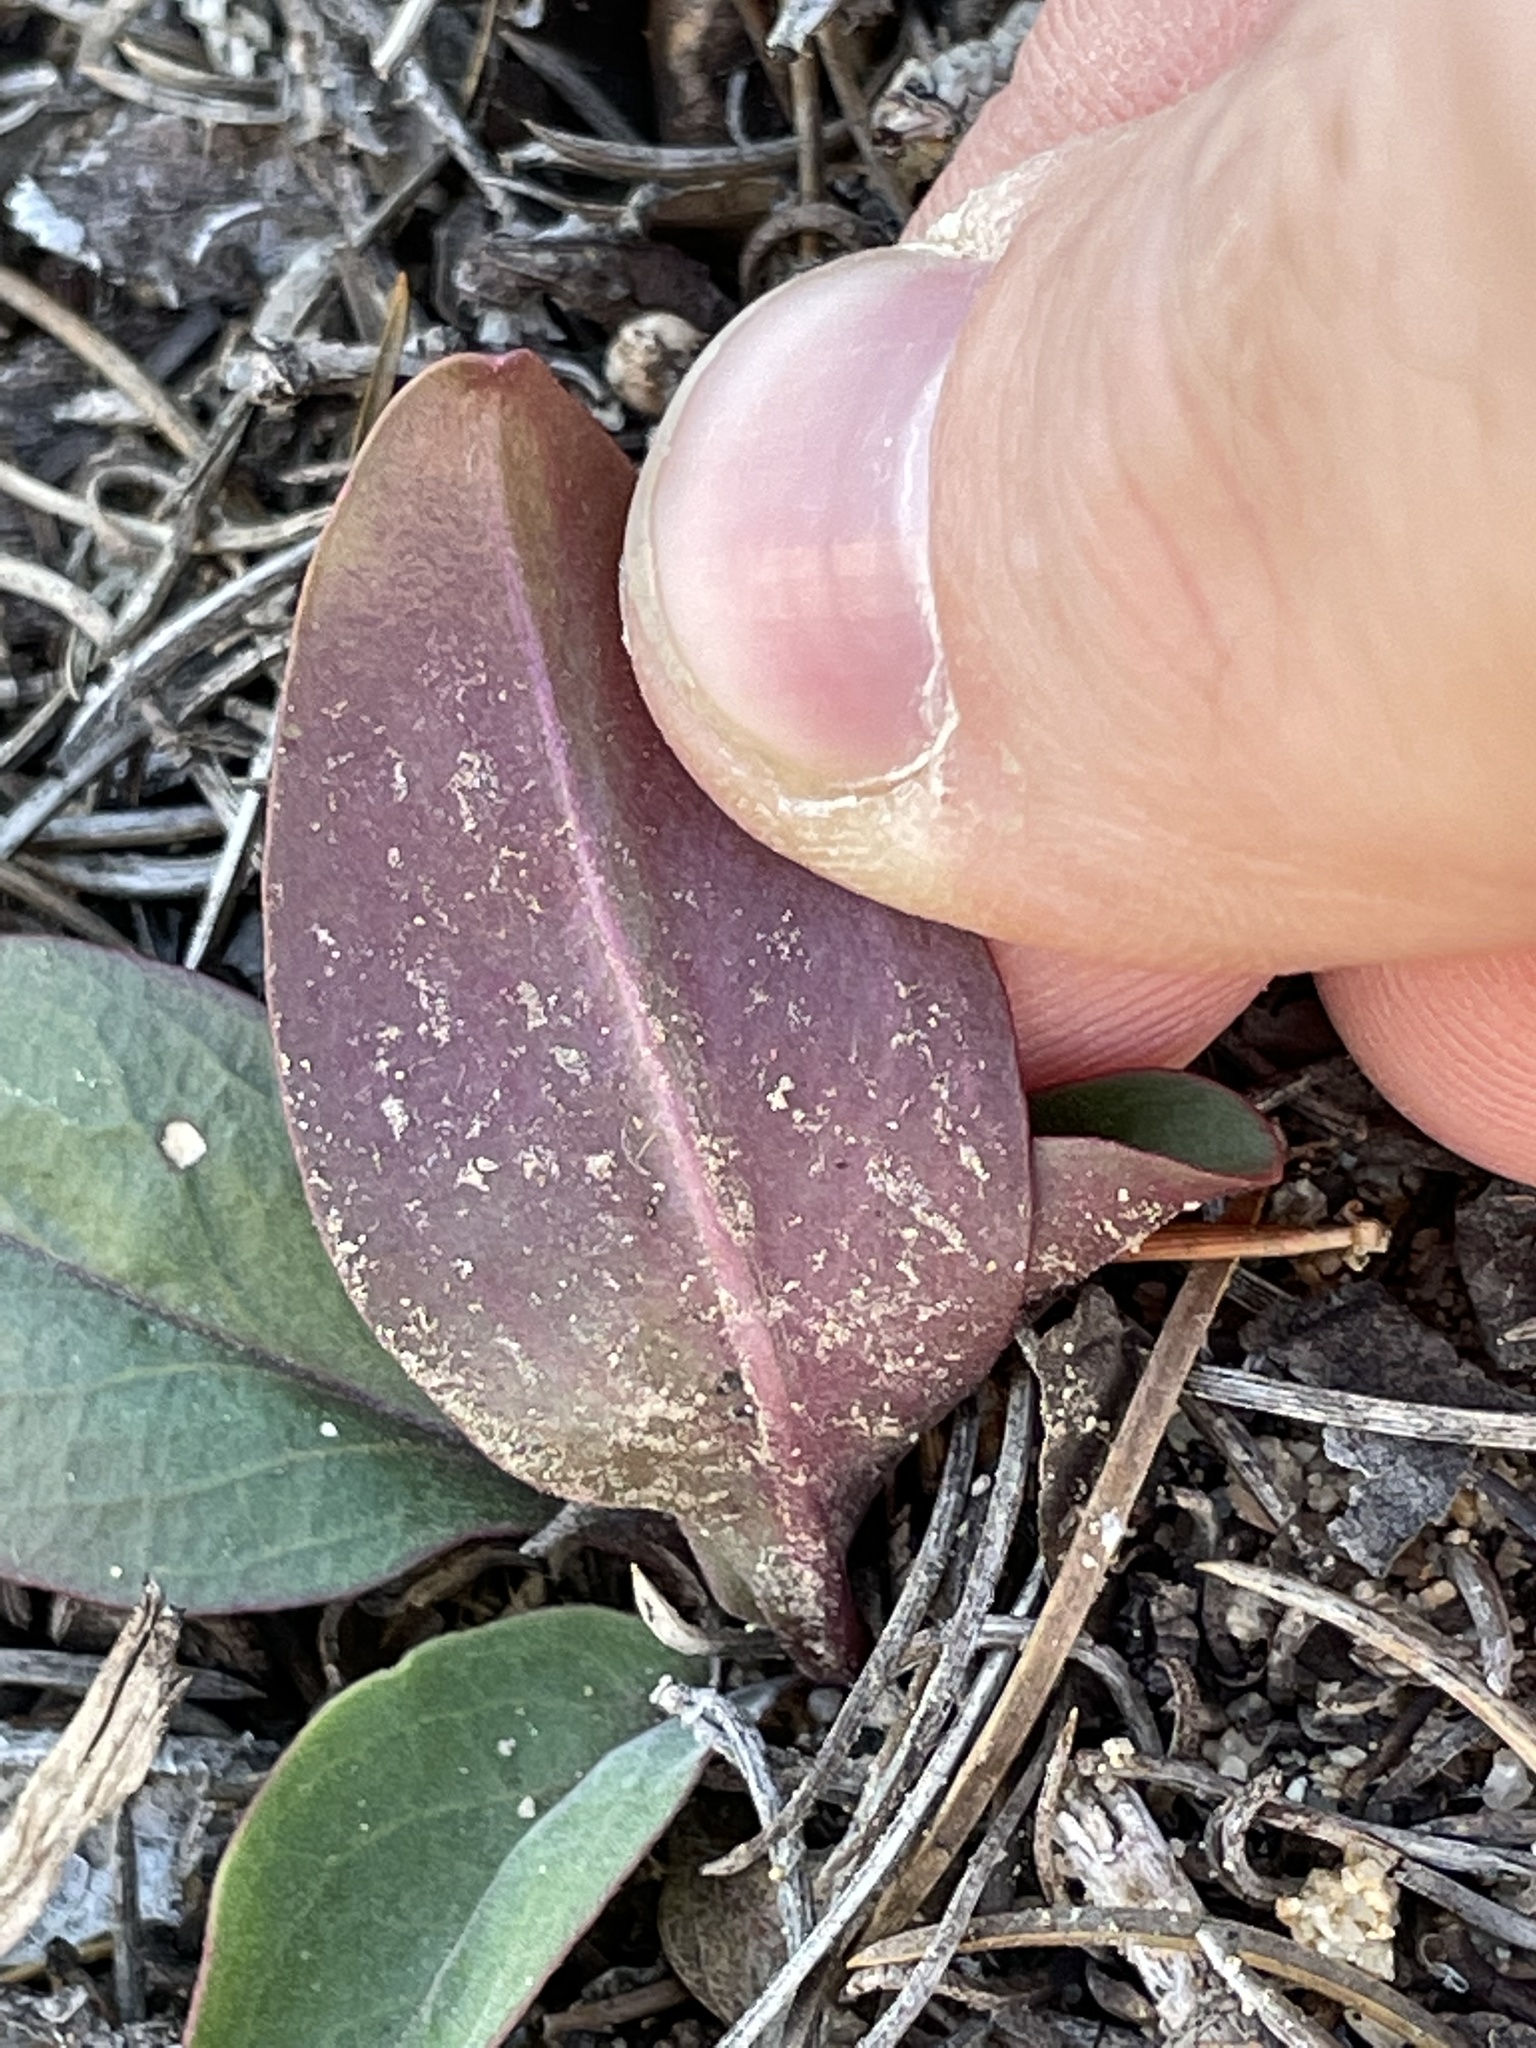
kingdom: Plantae
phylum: Tracheophyta
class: Magnoliopsida
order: Caryophyllales
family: Nyctaginaceae
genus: Mirabilis
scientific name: Mirabilis comata
